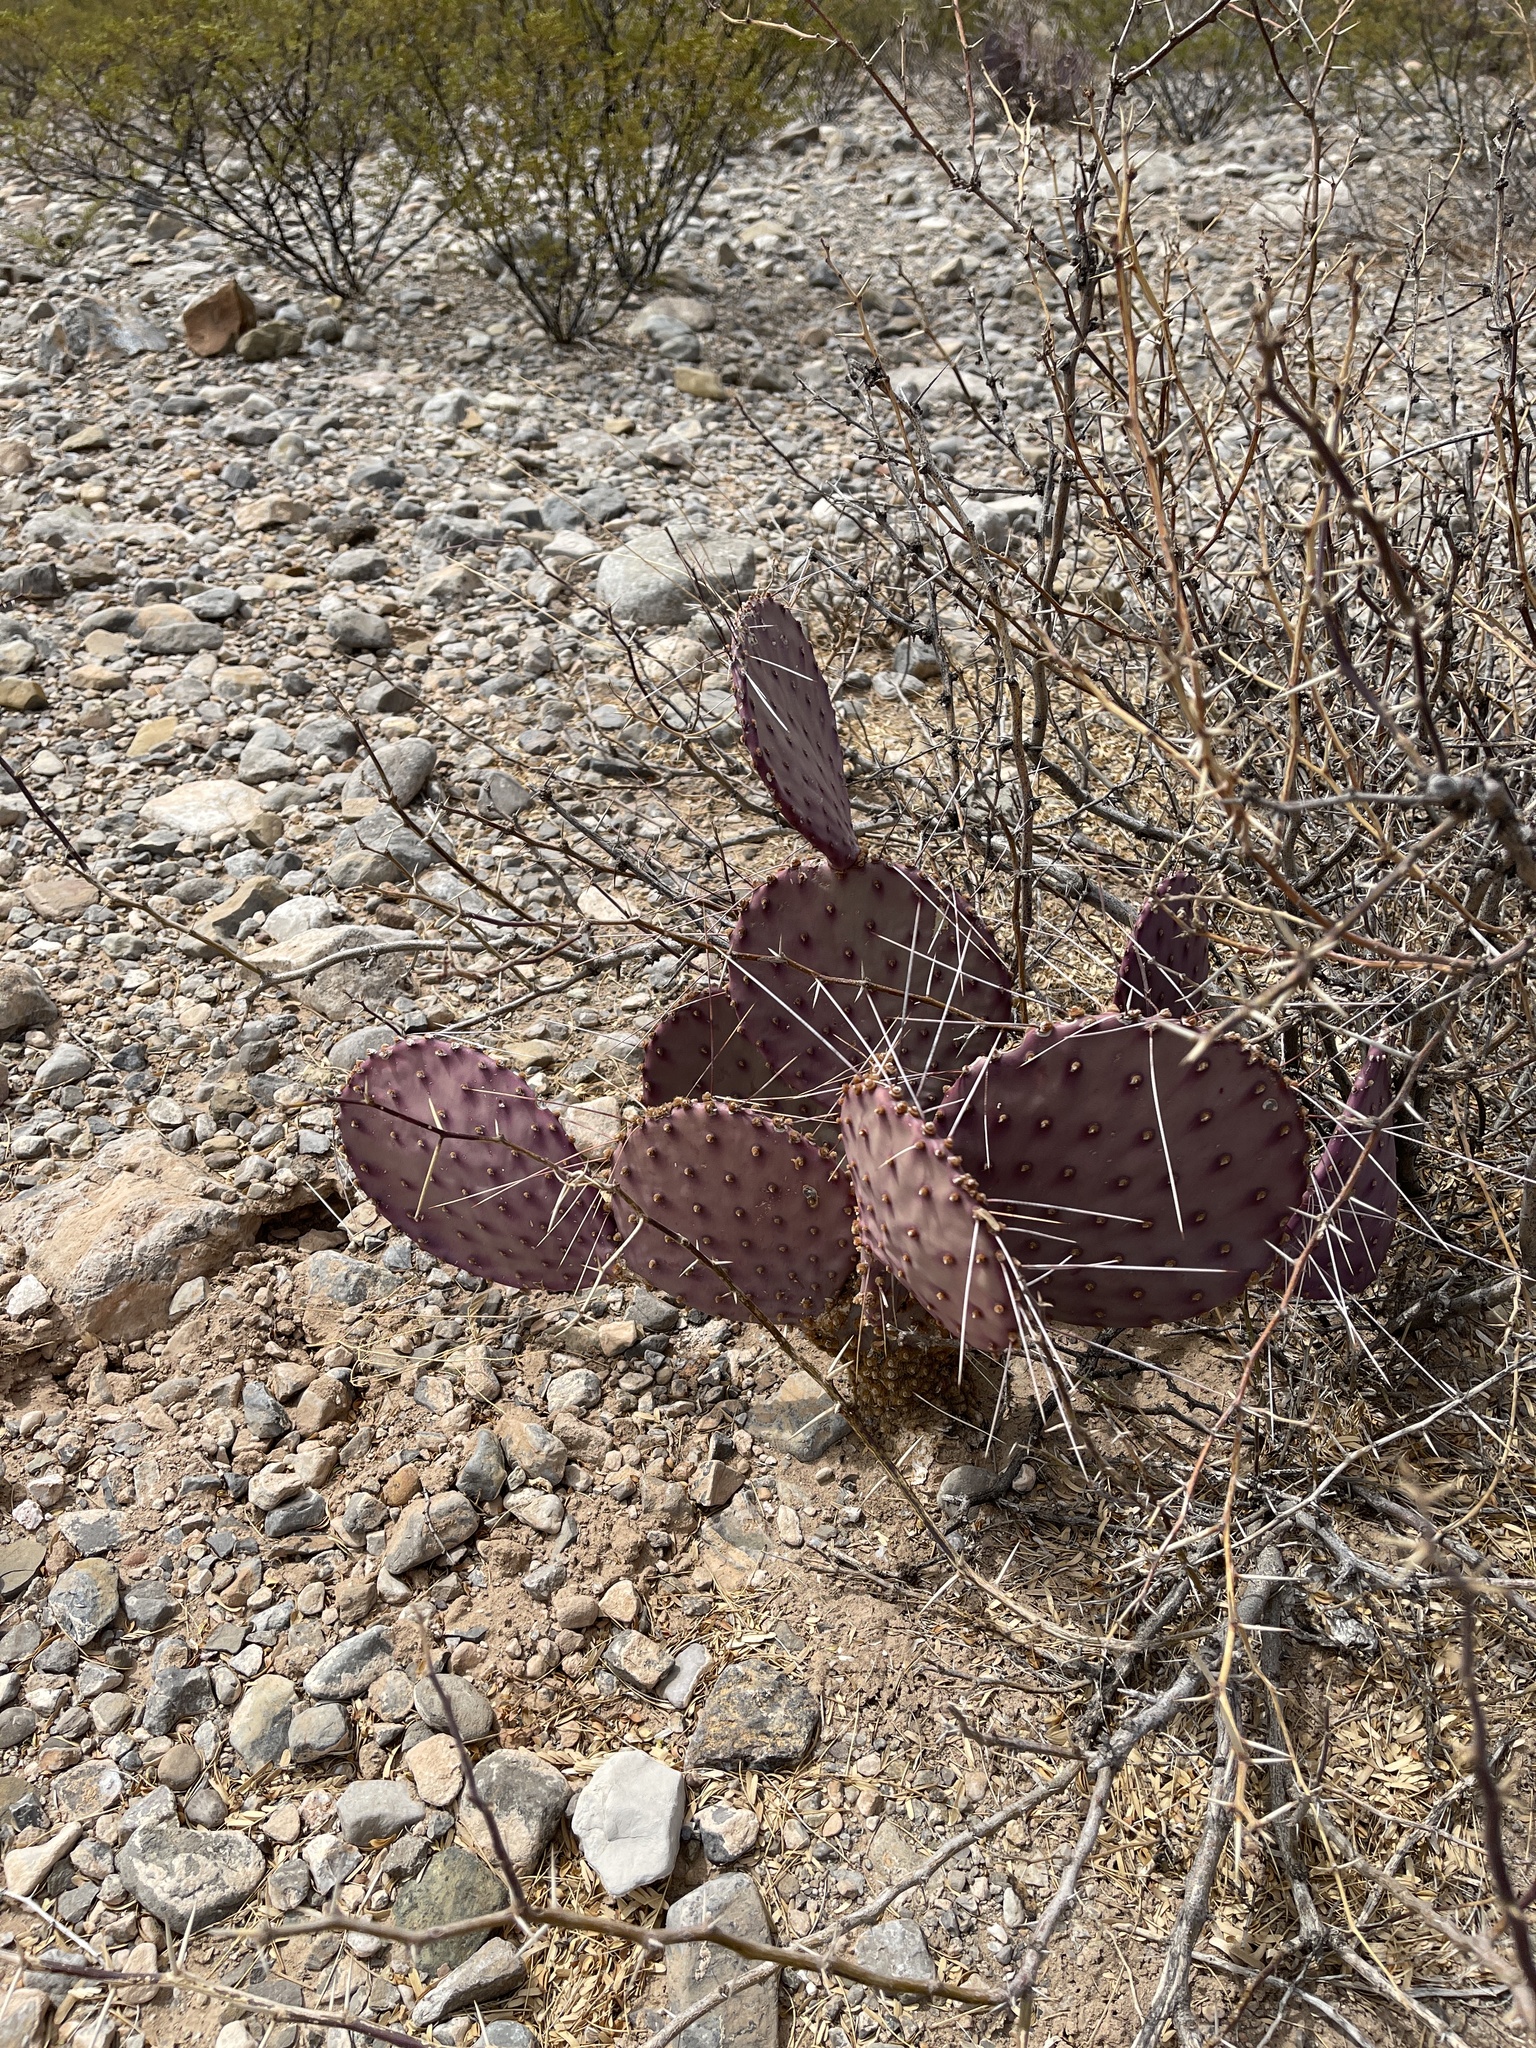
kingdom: Plantae
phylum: Tracheophyta
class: Magnoliopsida
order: Caryophyllales
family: Cactaceae
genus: Opuntia
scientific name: Opuntia macrocentra
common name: Purple prickly-pear
